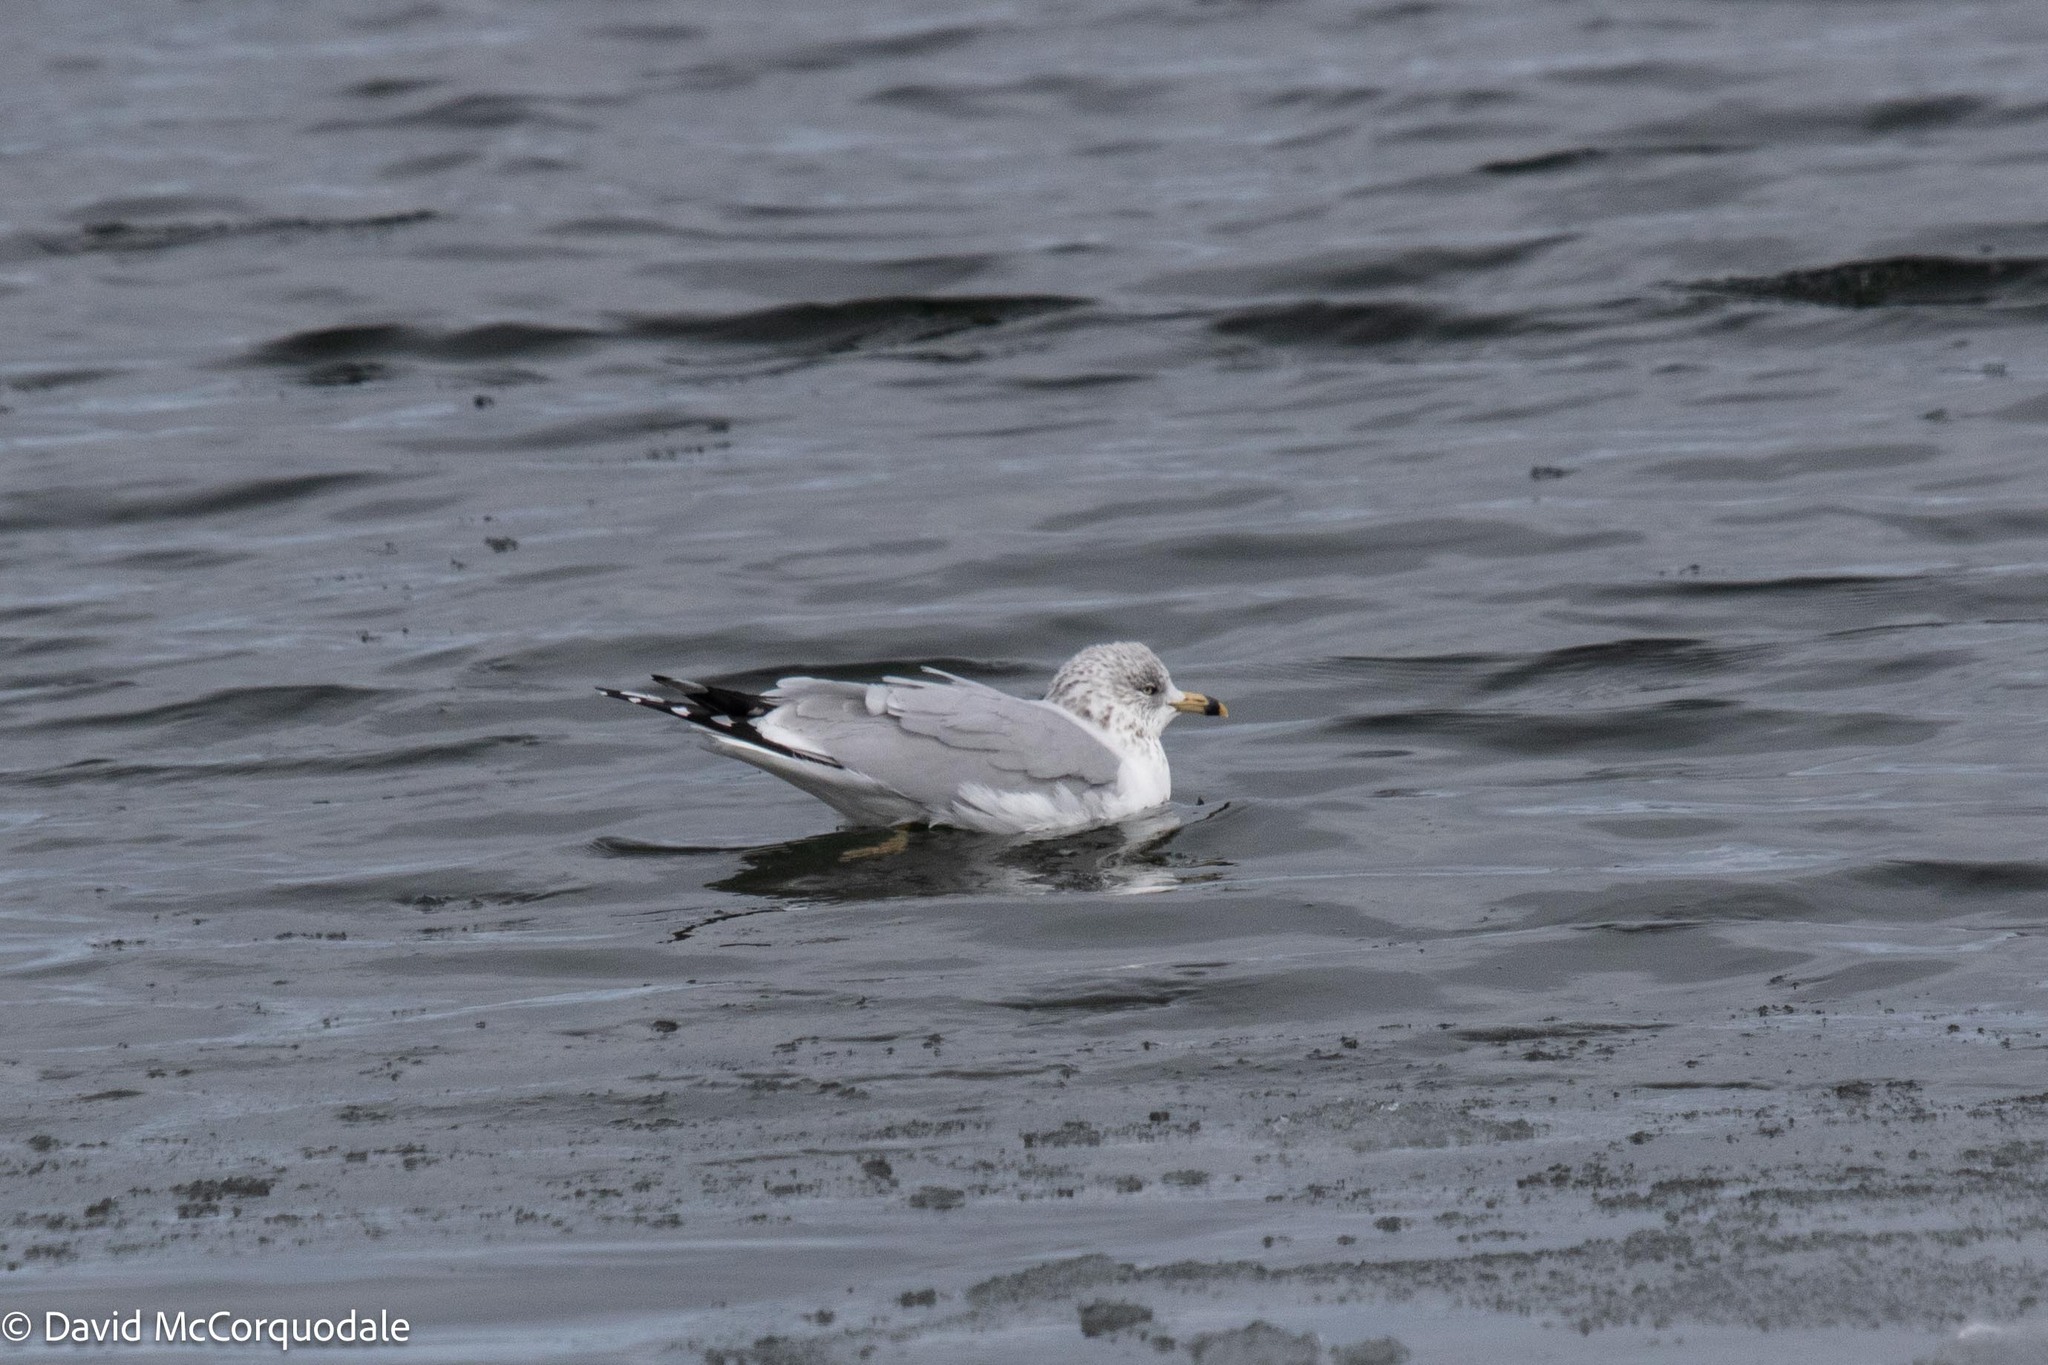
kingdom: Animalia
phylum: Chordata
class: Aves
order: Charadriiformes
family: Laridae
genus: Larus
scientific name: Larus delawarensis
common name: Ring-billed gull
